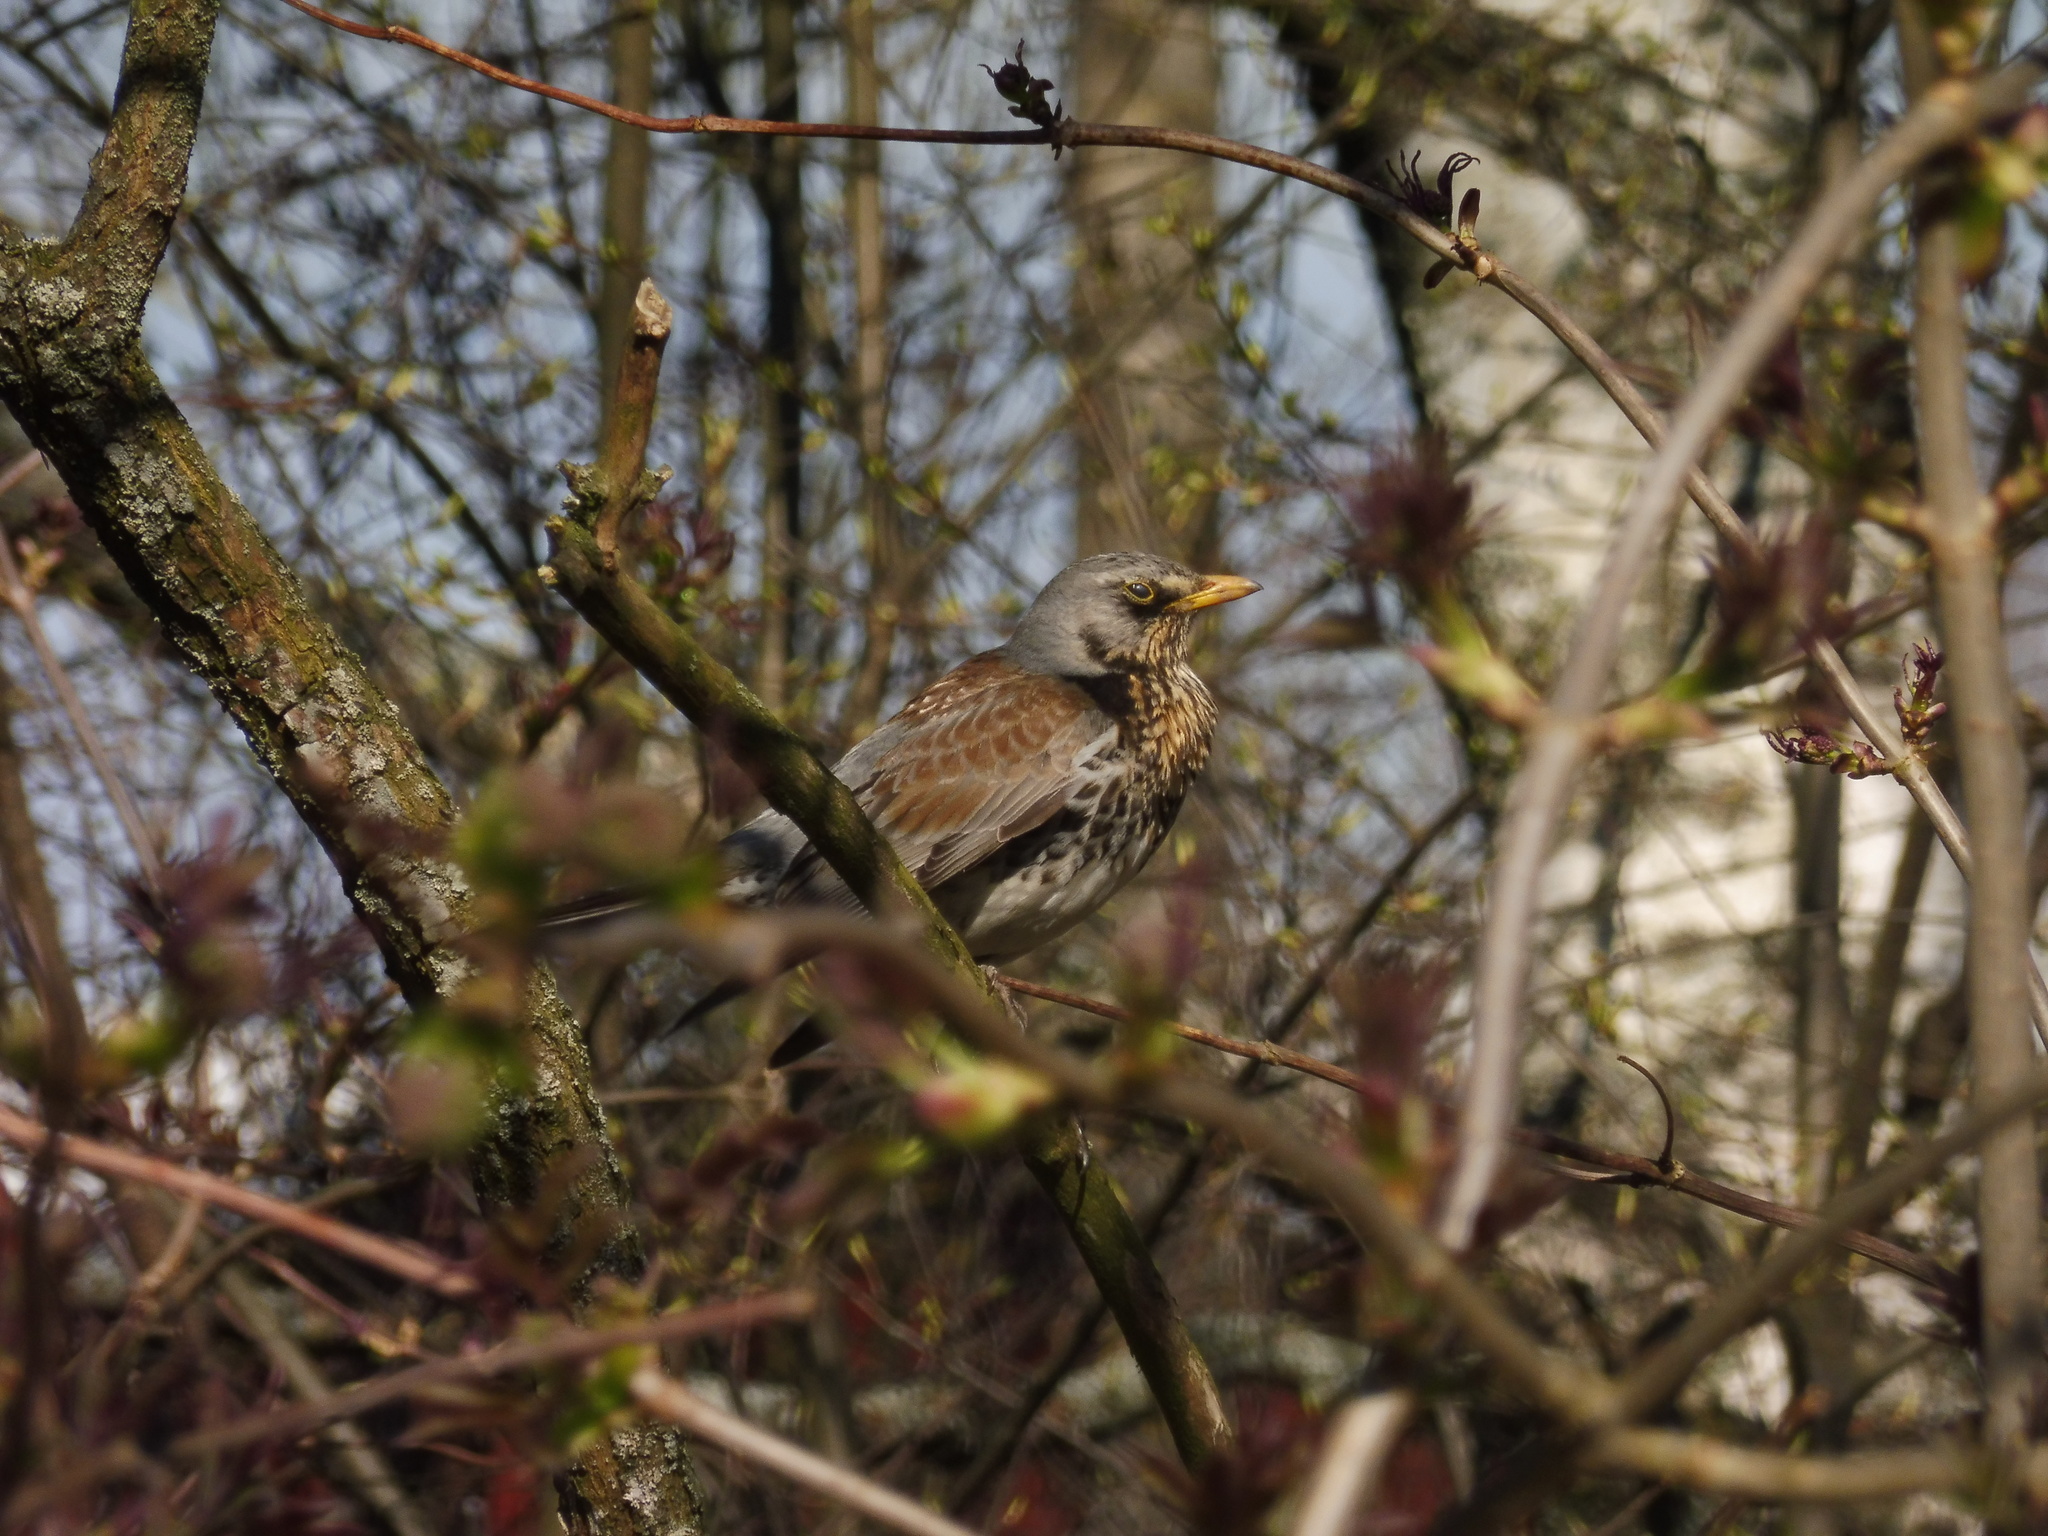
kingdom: Animalia
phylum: Chordata
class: Aves
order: Passeriformes
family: Turdidae
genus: Turdus
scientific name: Turdus pilaris
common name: Fieldfare
